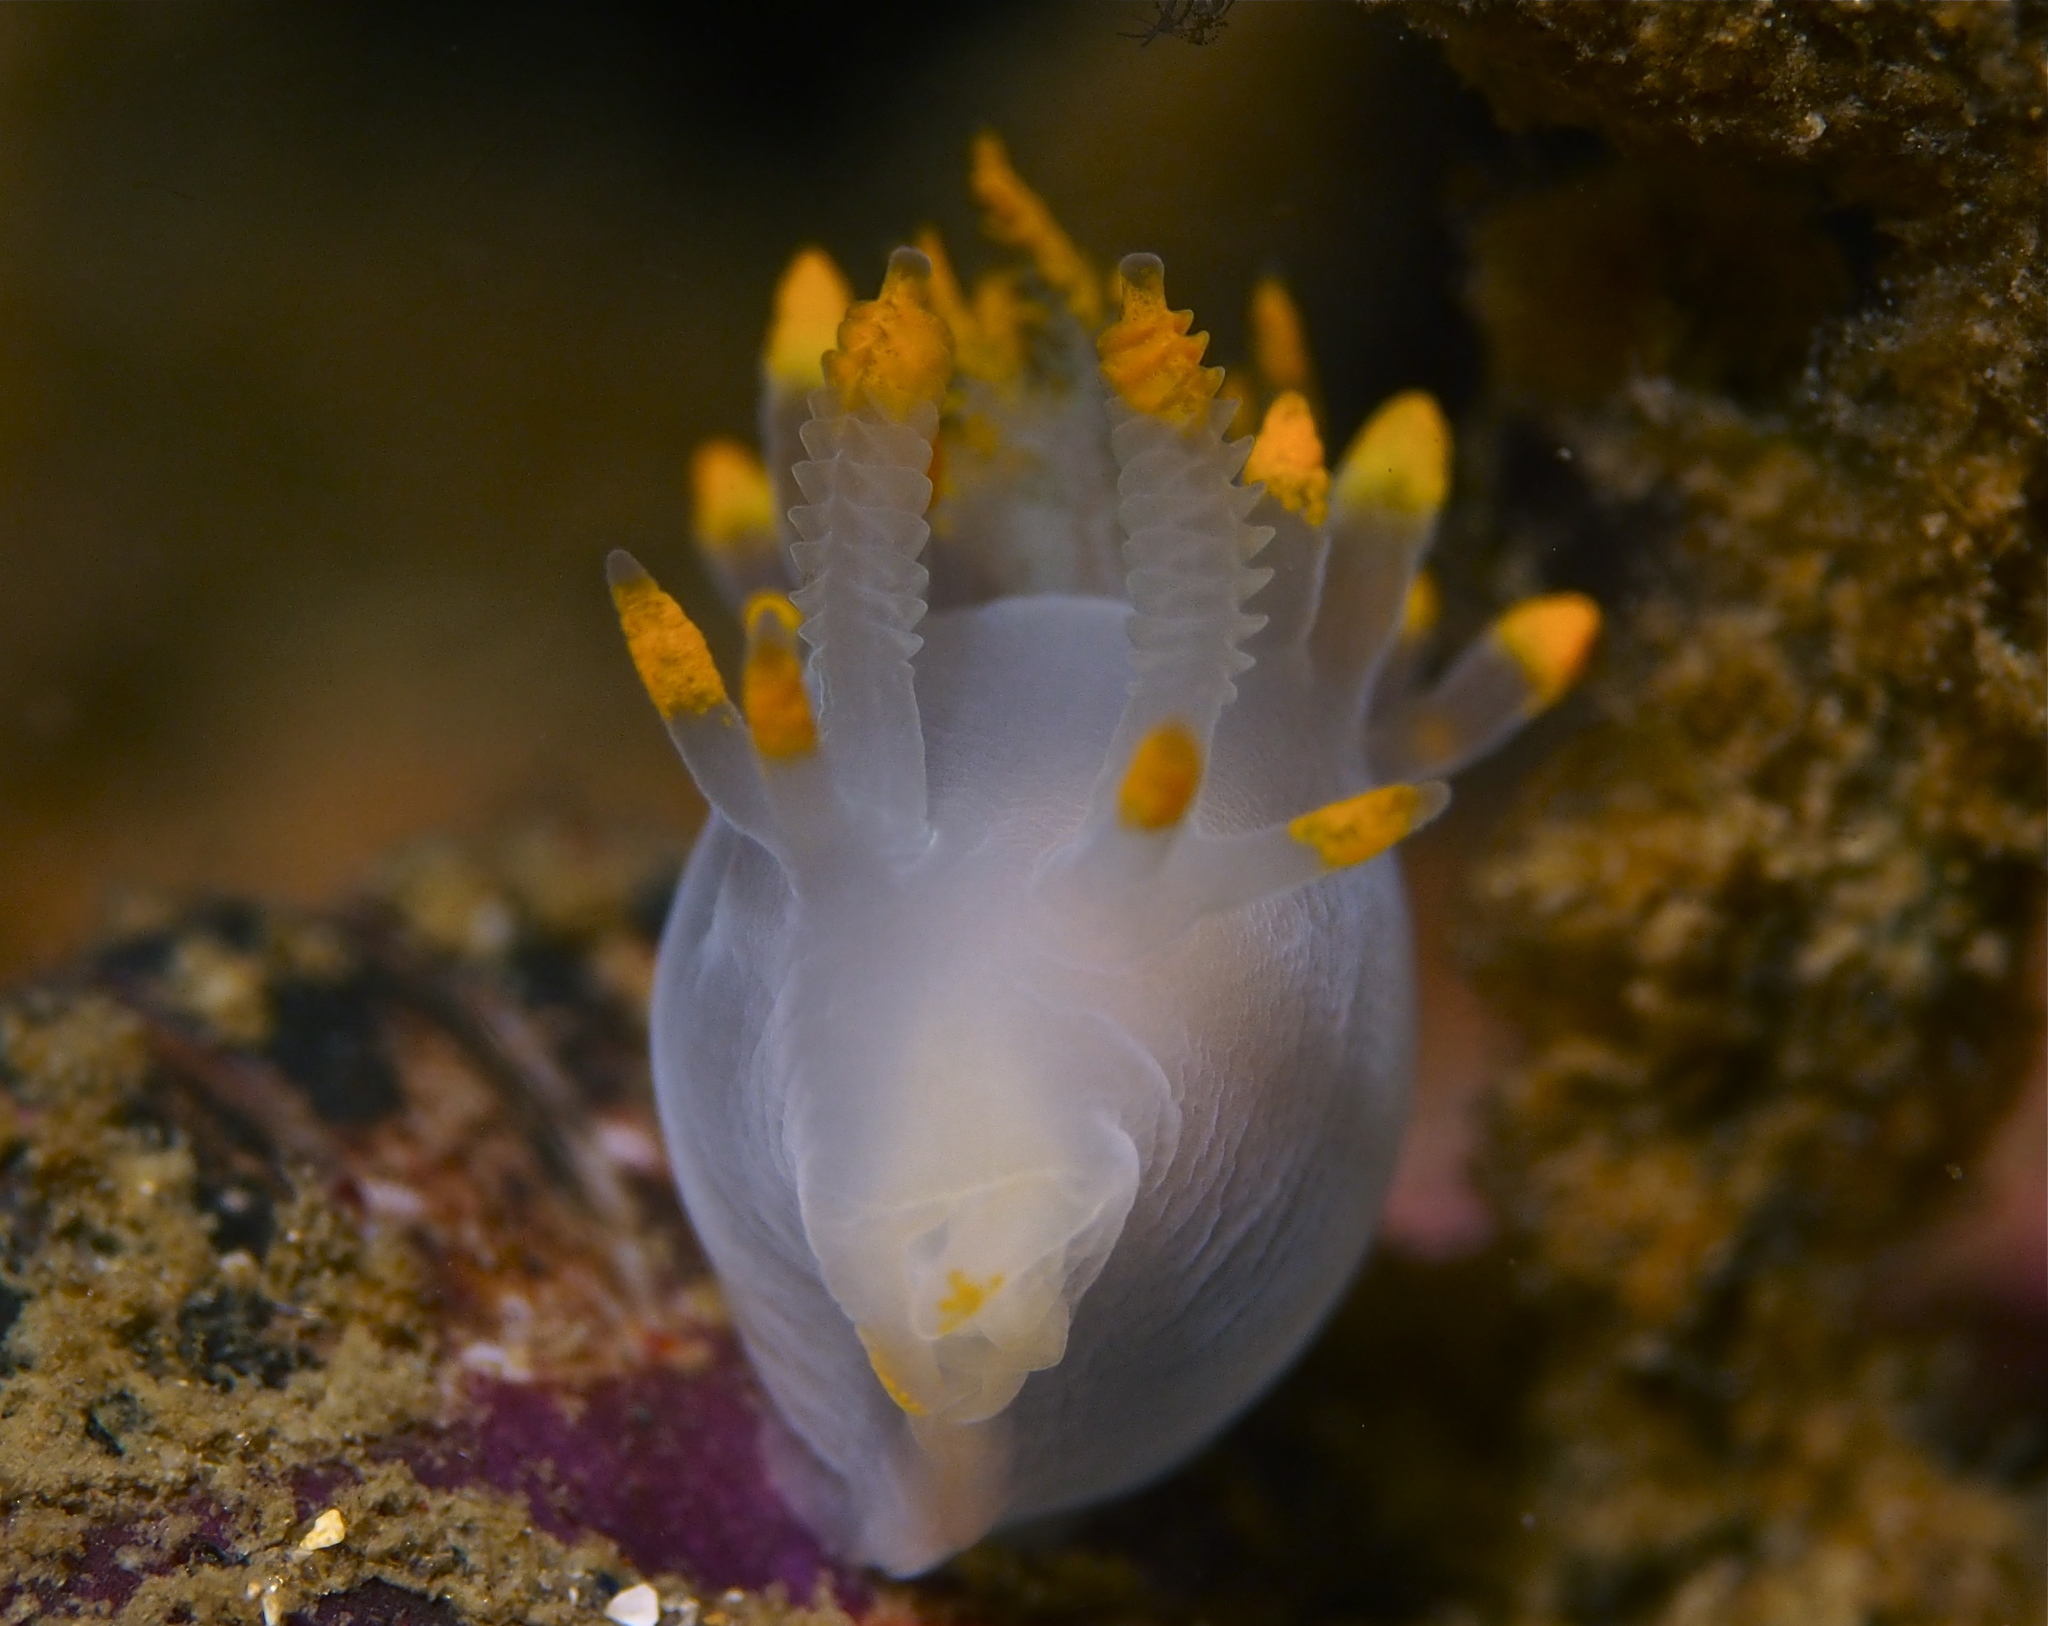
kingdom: Animalia
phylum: Mollusca
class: Gastropoda
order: Nudibranchia
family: Goniodorididae
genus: Ancula
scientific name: Ancula gibbosa
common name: Atlantic ancula
